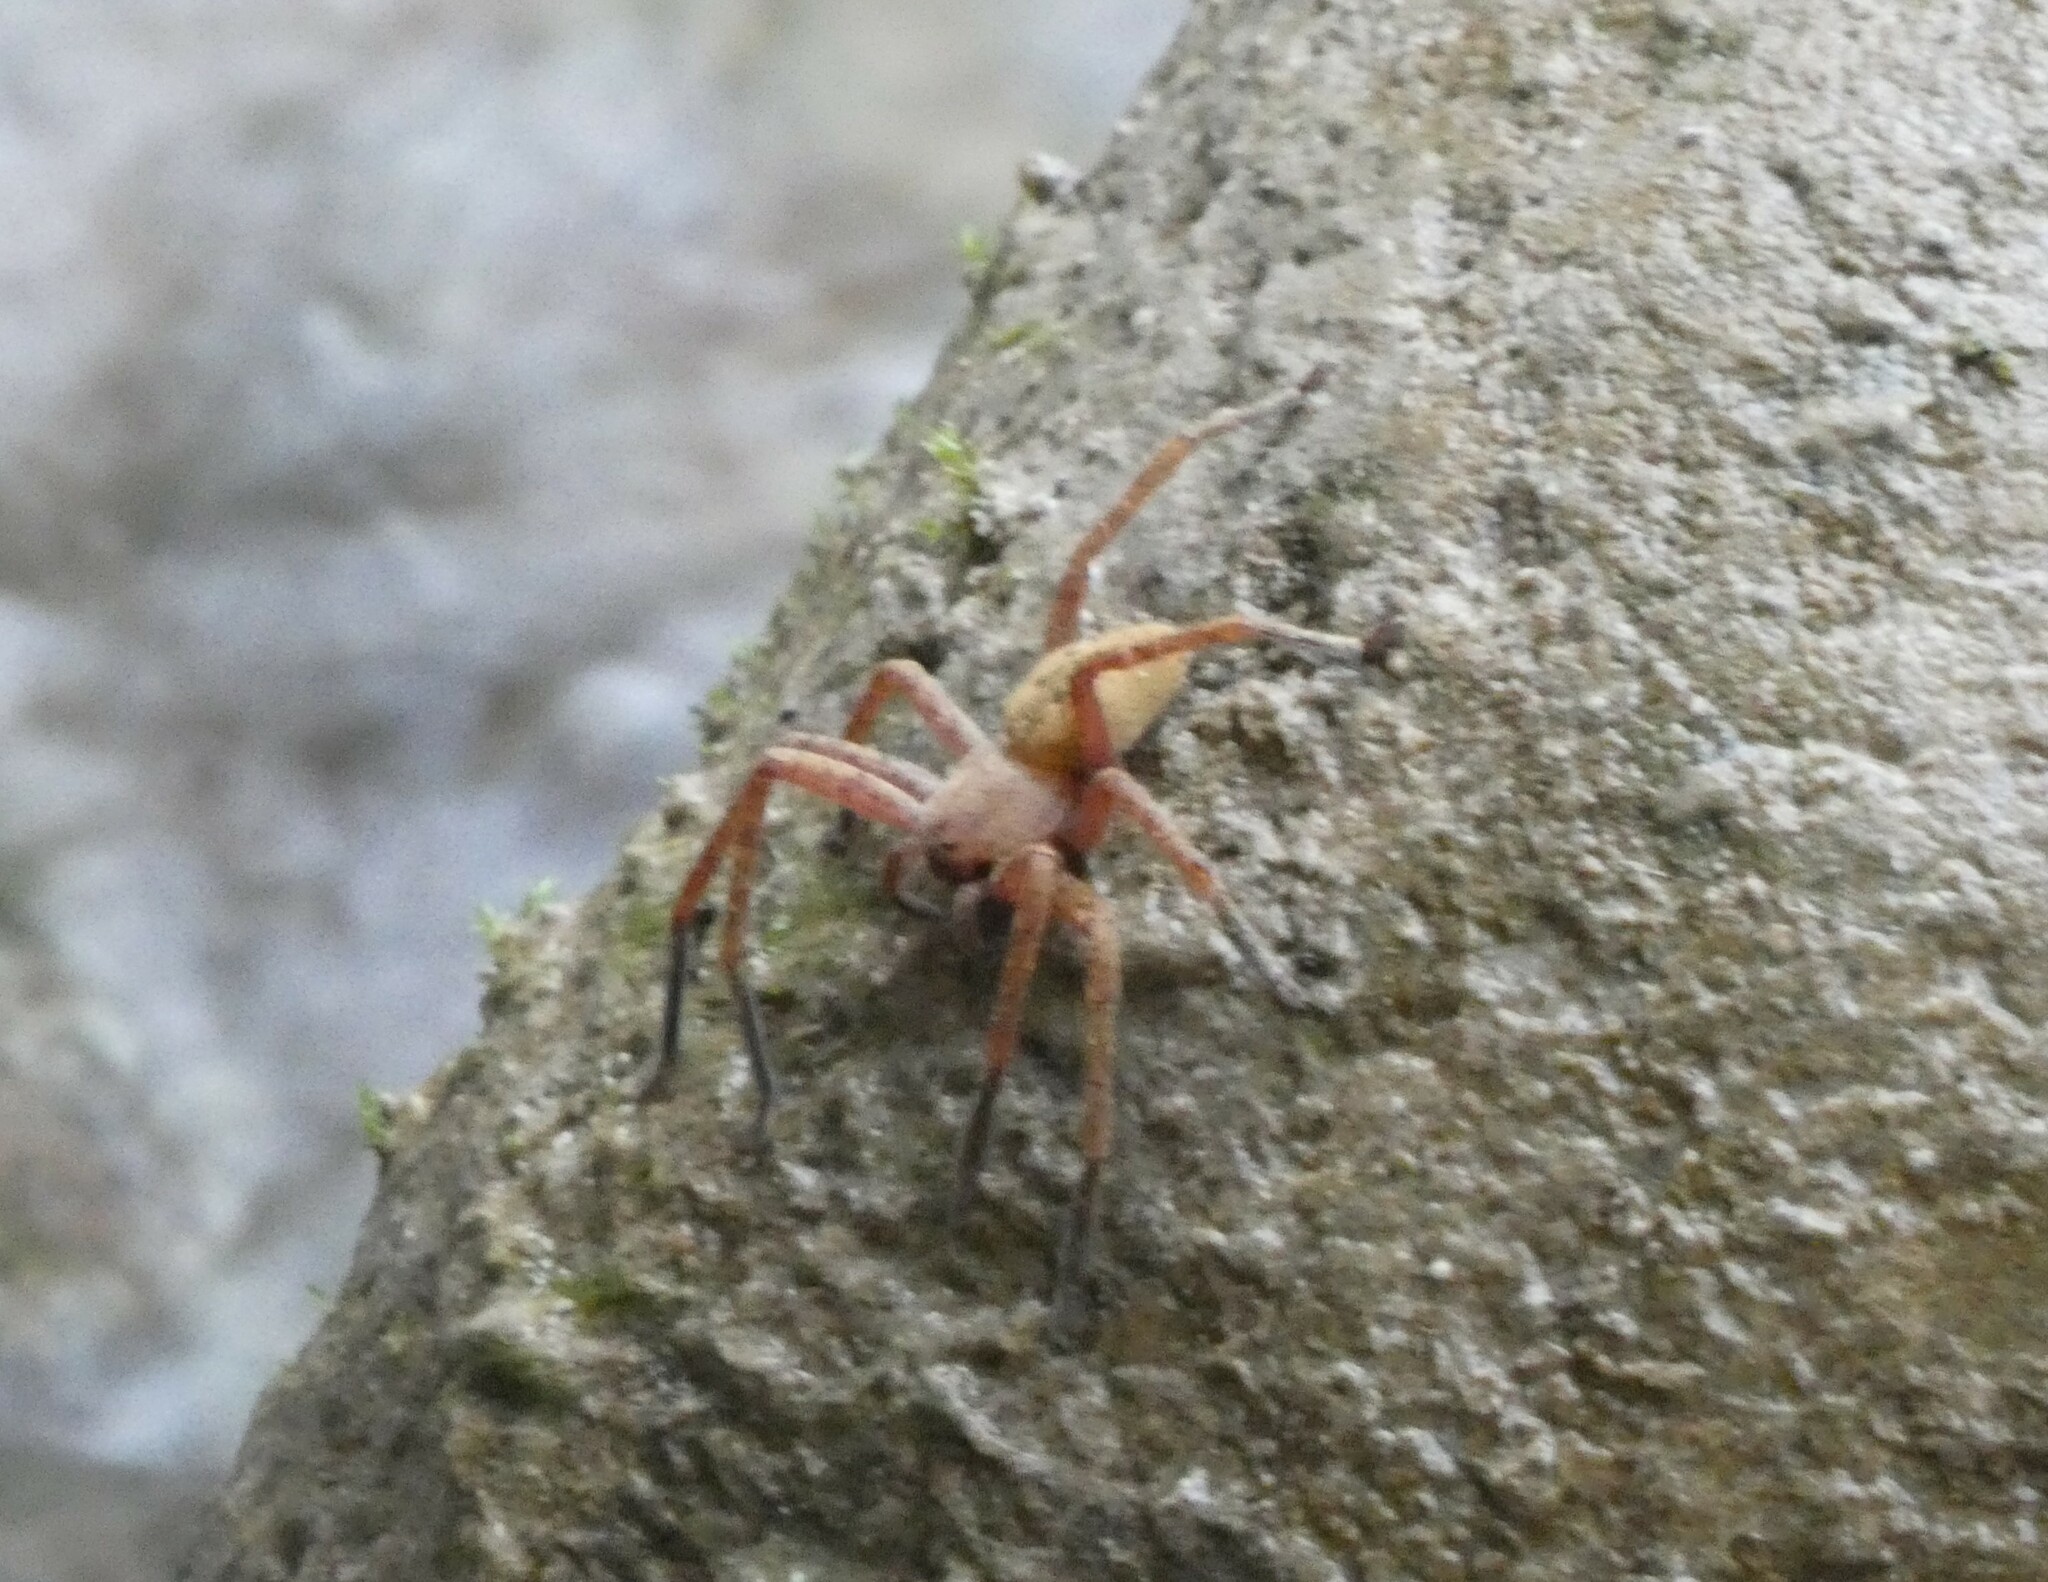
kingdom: Animalia
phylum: Arthropoda
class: Arachnida
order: Araneae
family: Sparassidae
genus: Olios
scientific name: Olios argelasius
